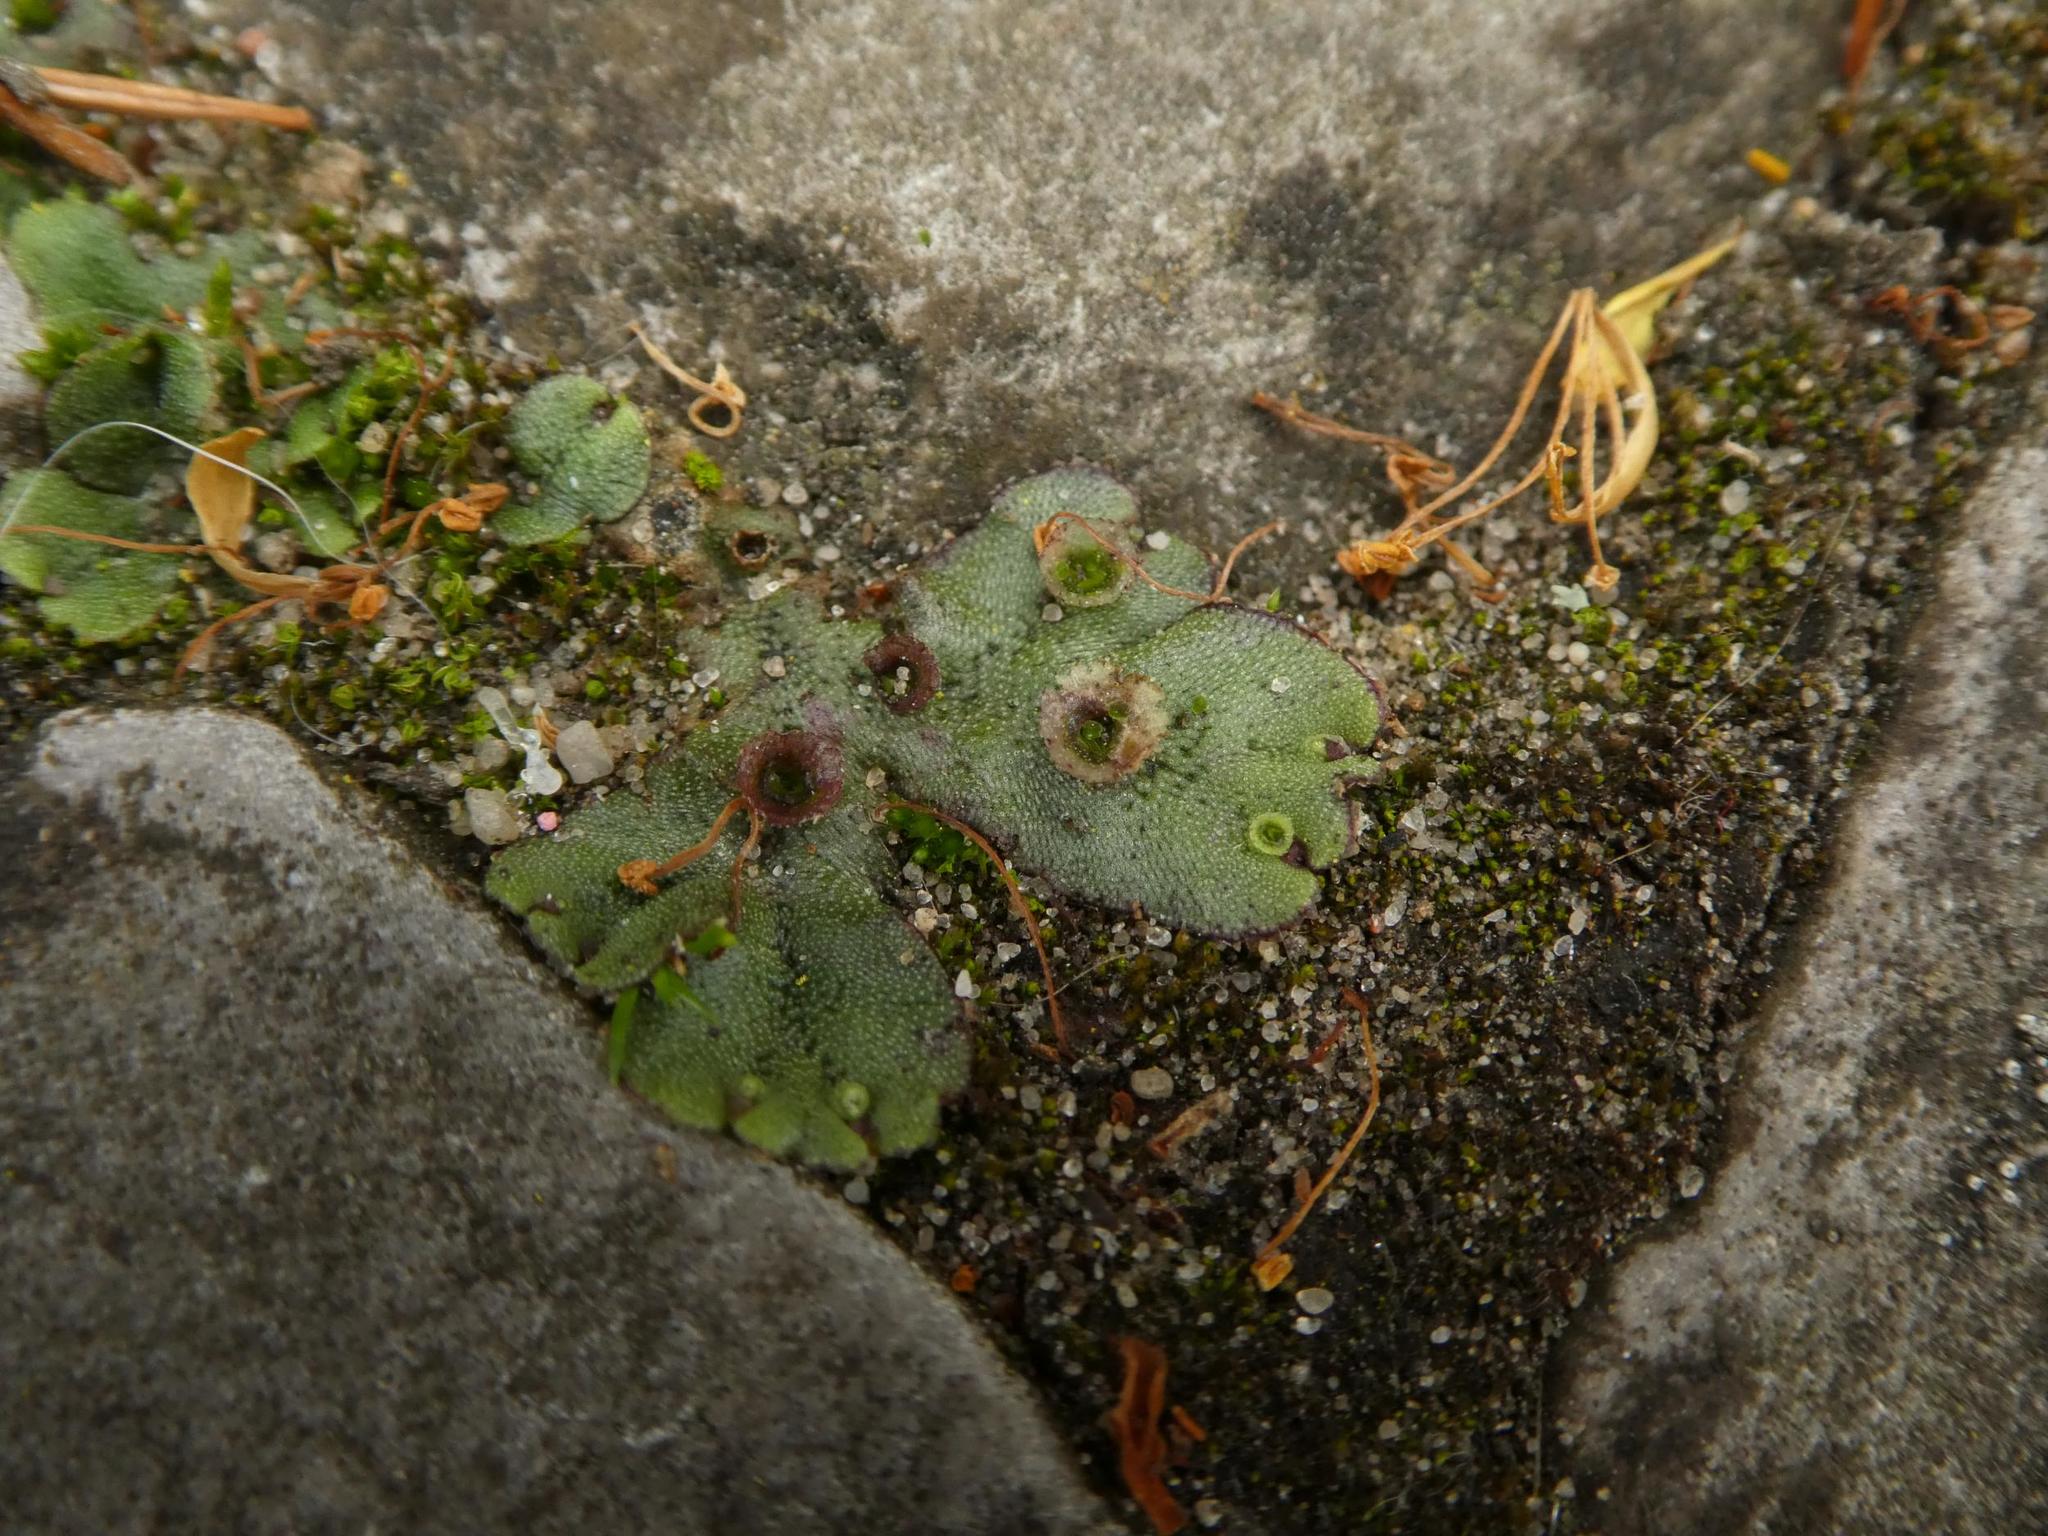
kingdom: Plantae
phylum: Marchantiophyta
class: Marchantiopsida
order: Marchantiales
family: Marchantiaceae
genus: Marchantia
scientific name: Marchantia polymorpha
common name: Common liverwort
